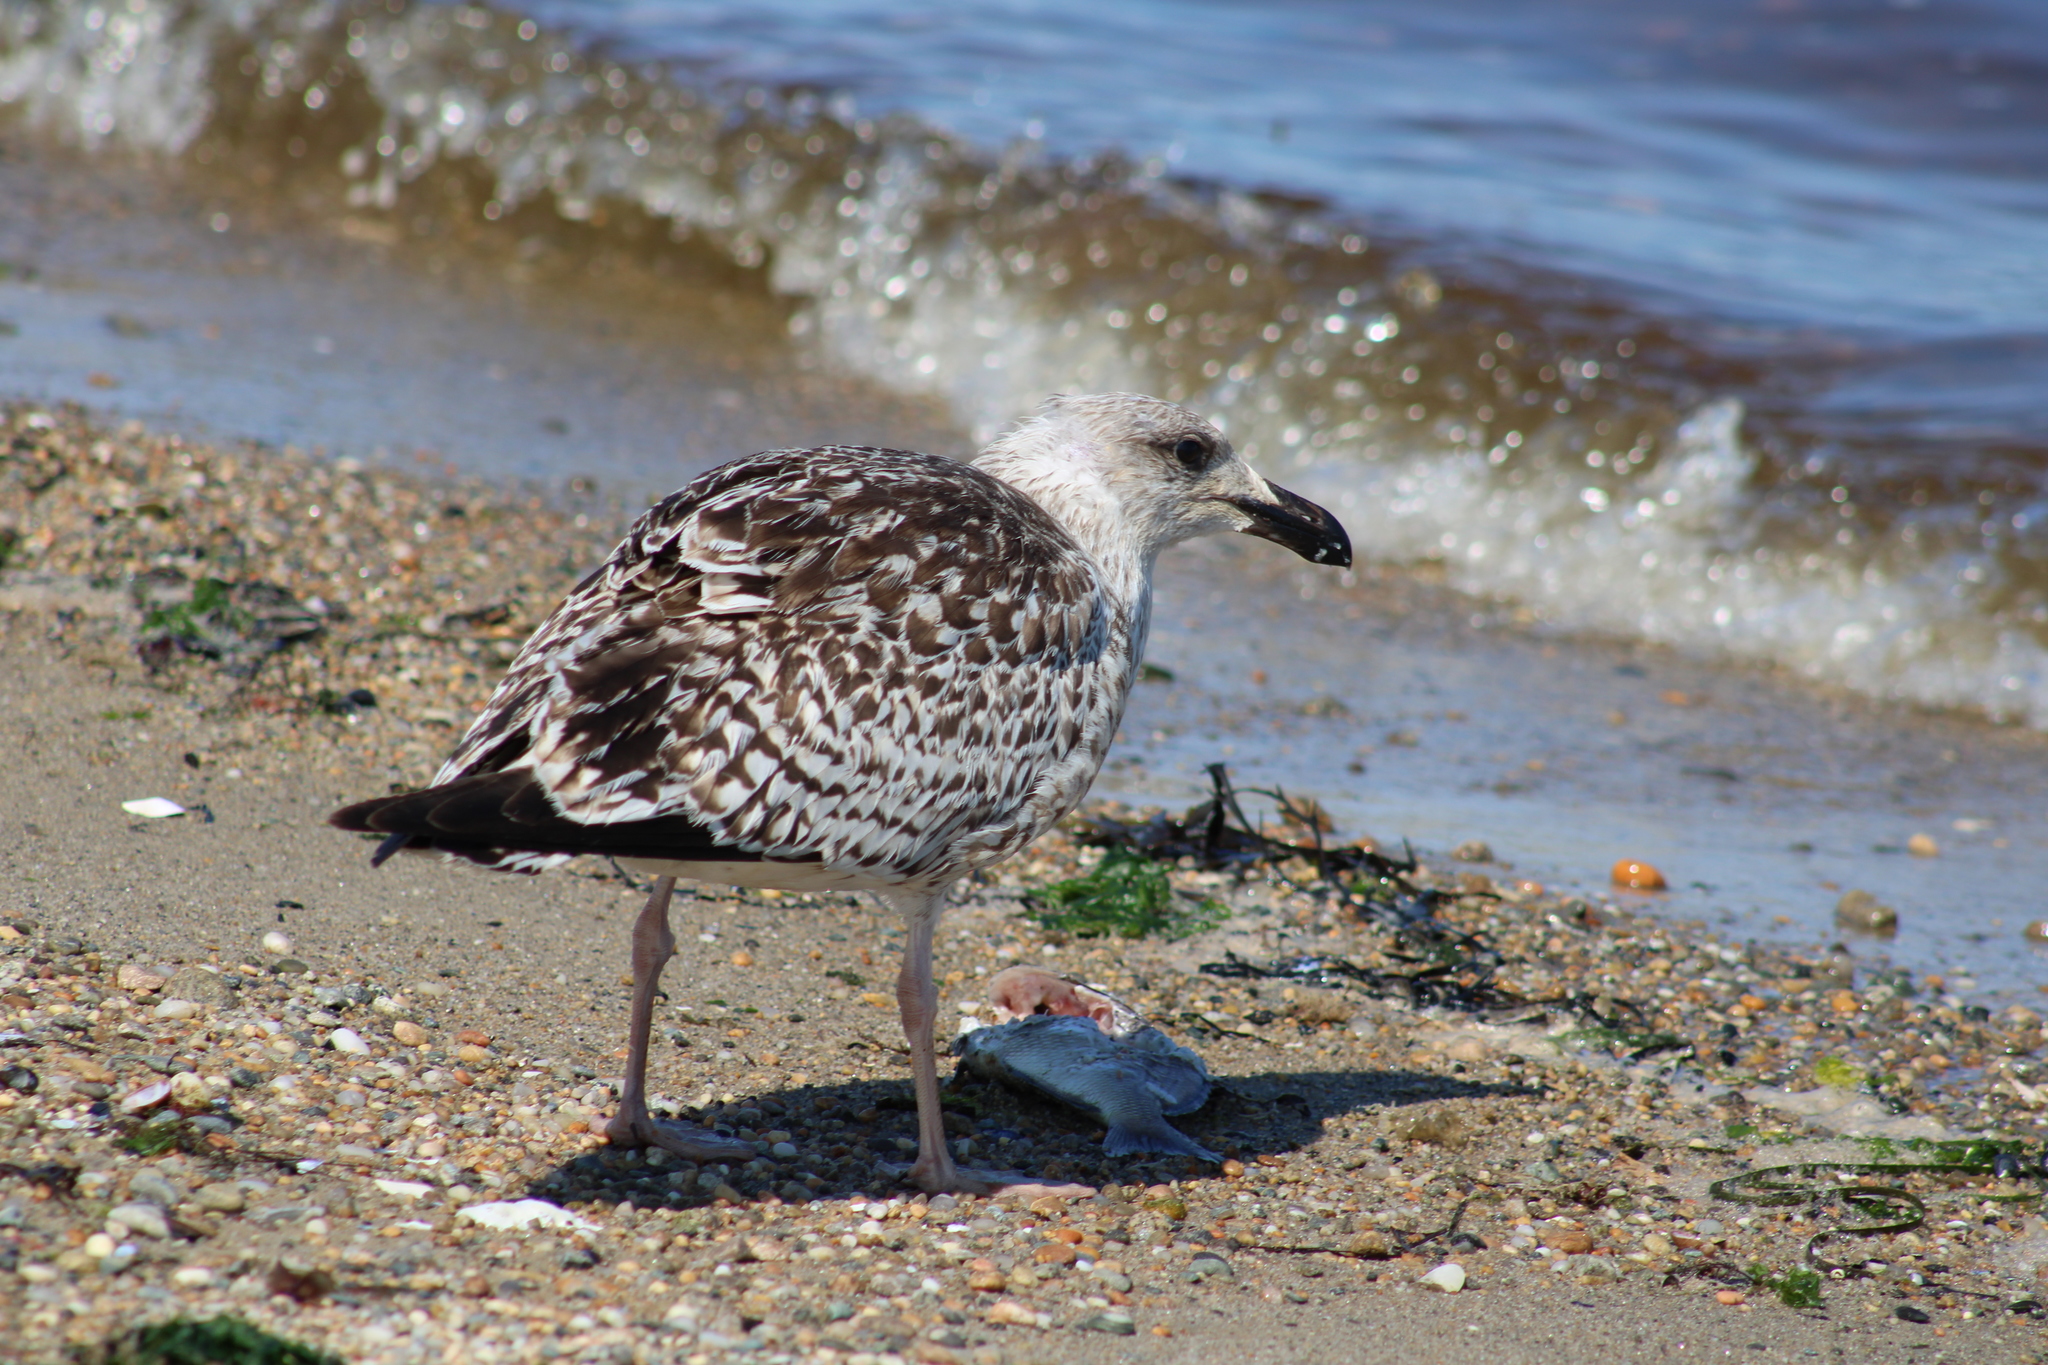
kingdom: Animalia
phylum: Chordata
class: Aves
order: Charadriiformes
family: Laridae
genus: Larus
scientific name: Larus marinus
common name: Great black-backed gull
